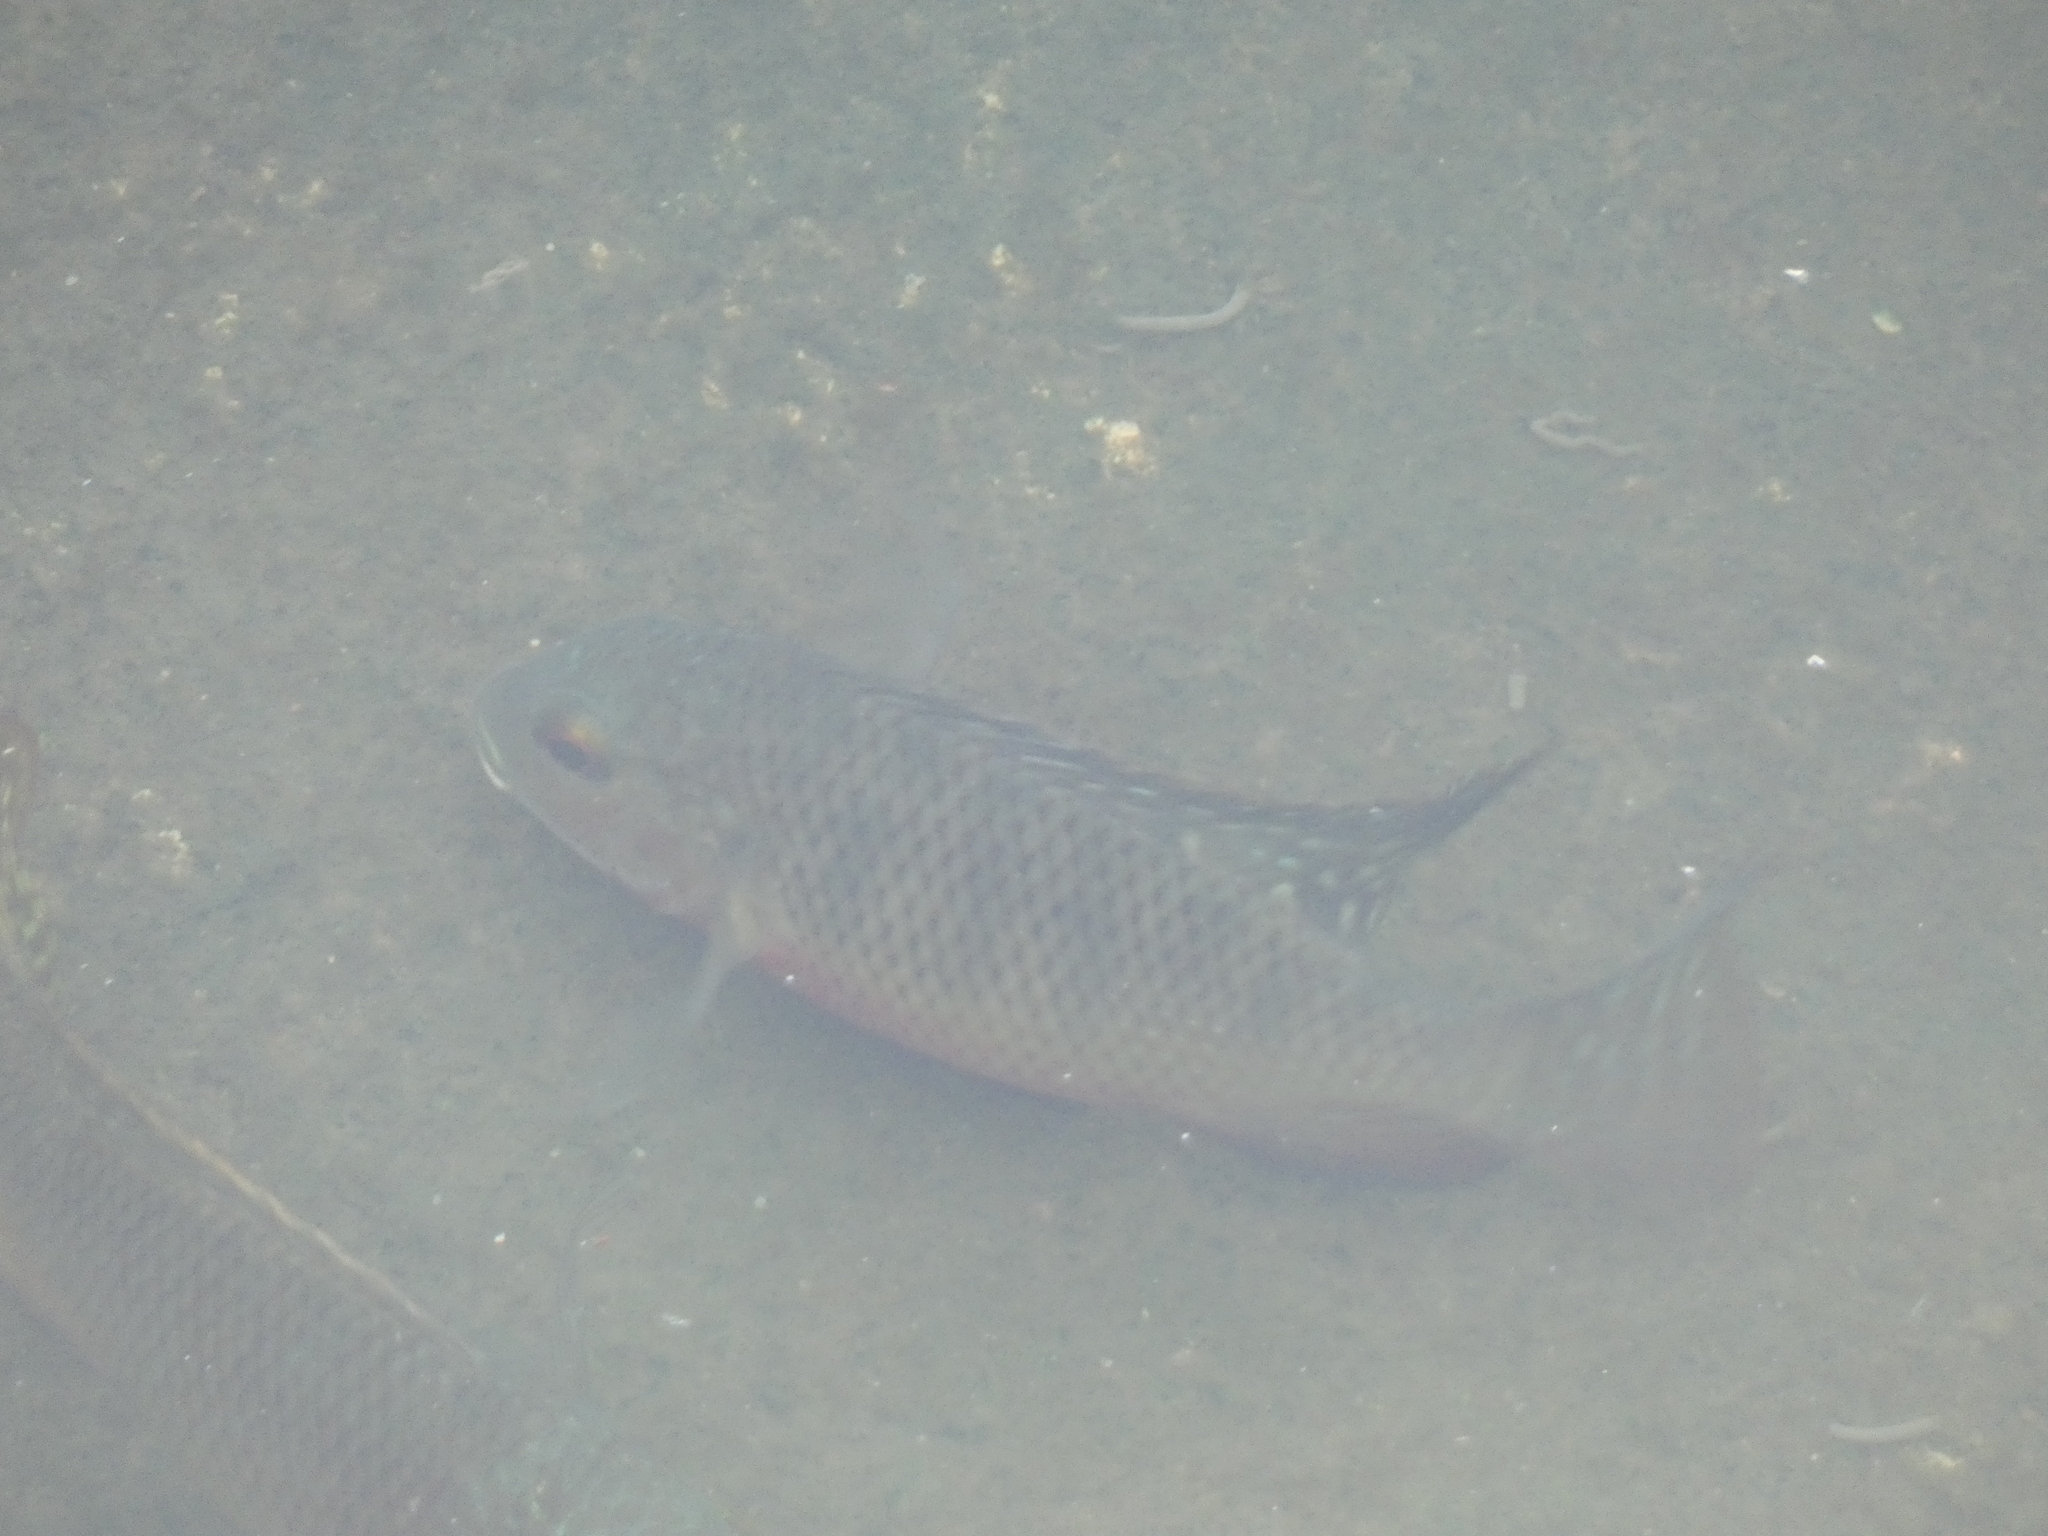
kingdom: Animalia
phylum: Chordata
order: Perciformes
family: Cichlidae
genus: Coptodon
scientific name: Coptodon zillii
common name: Redbelly tilapia
